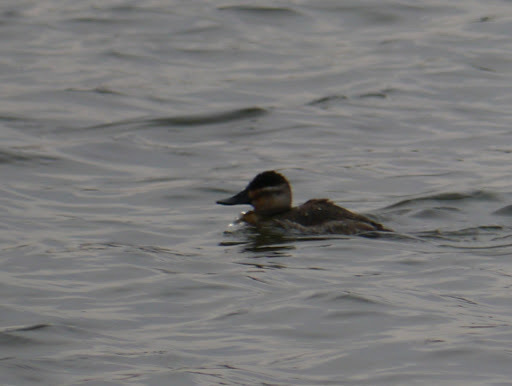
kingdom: Animalia
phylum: Chordata
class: Aves
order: Anseriformes
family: Anatidae
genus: Oxyura
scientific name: Oxyura jamaicensis
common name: Ruddy duck
